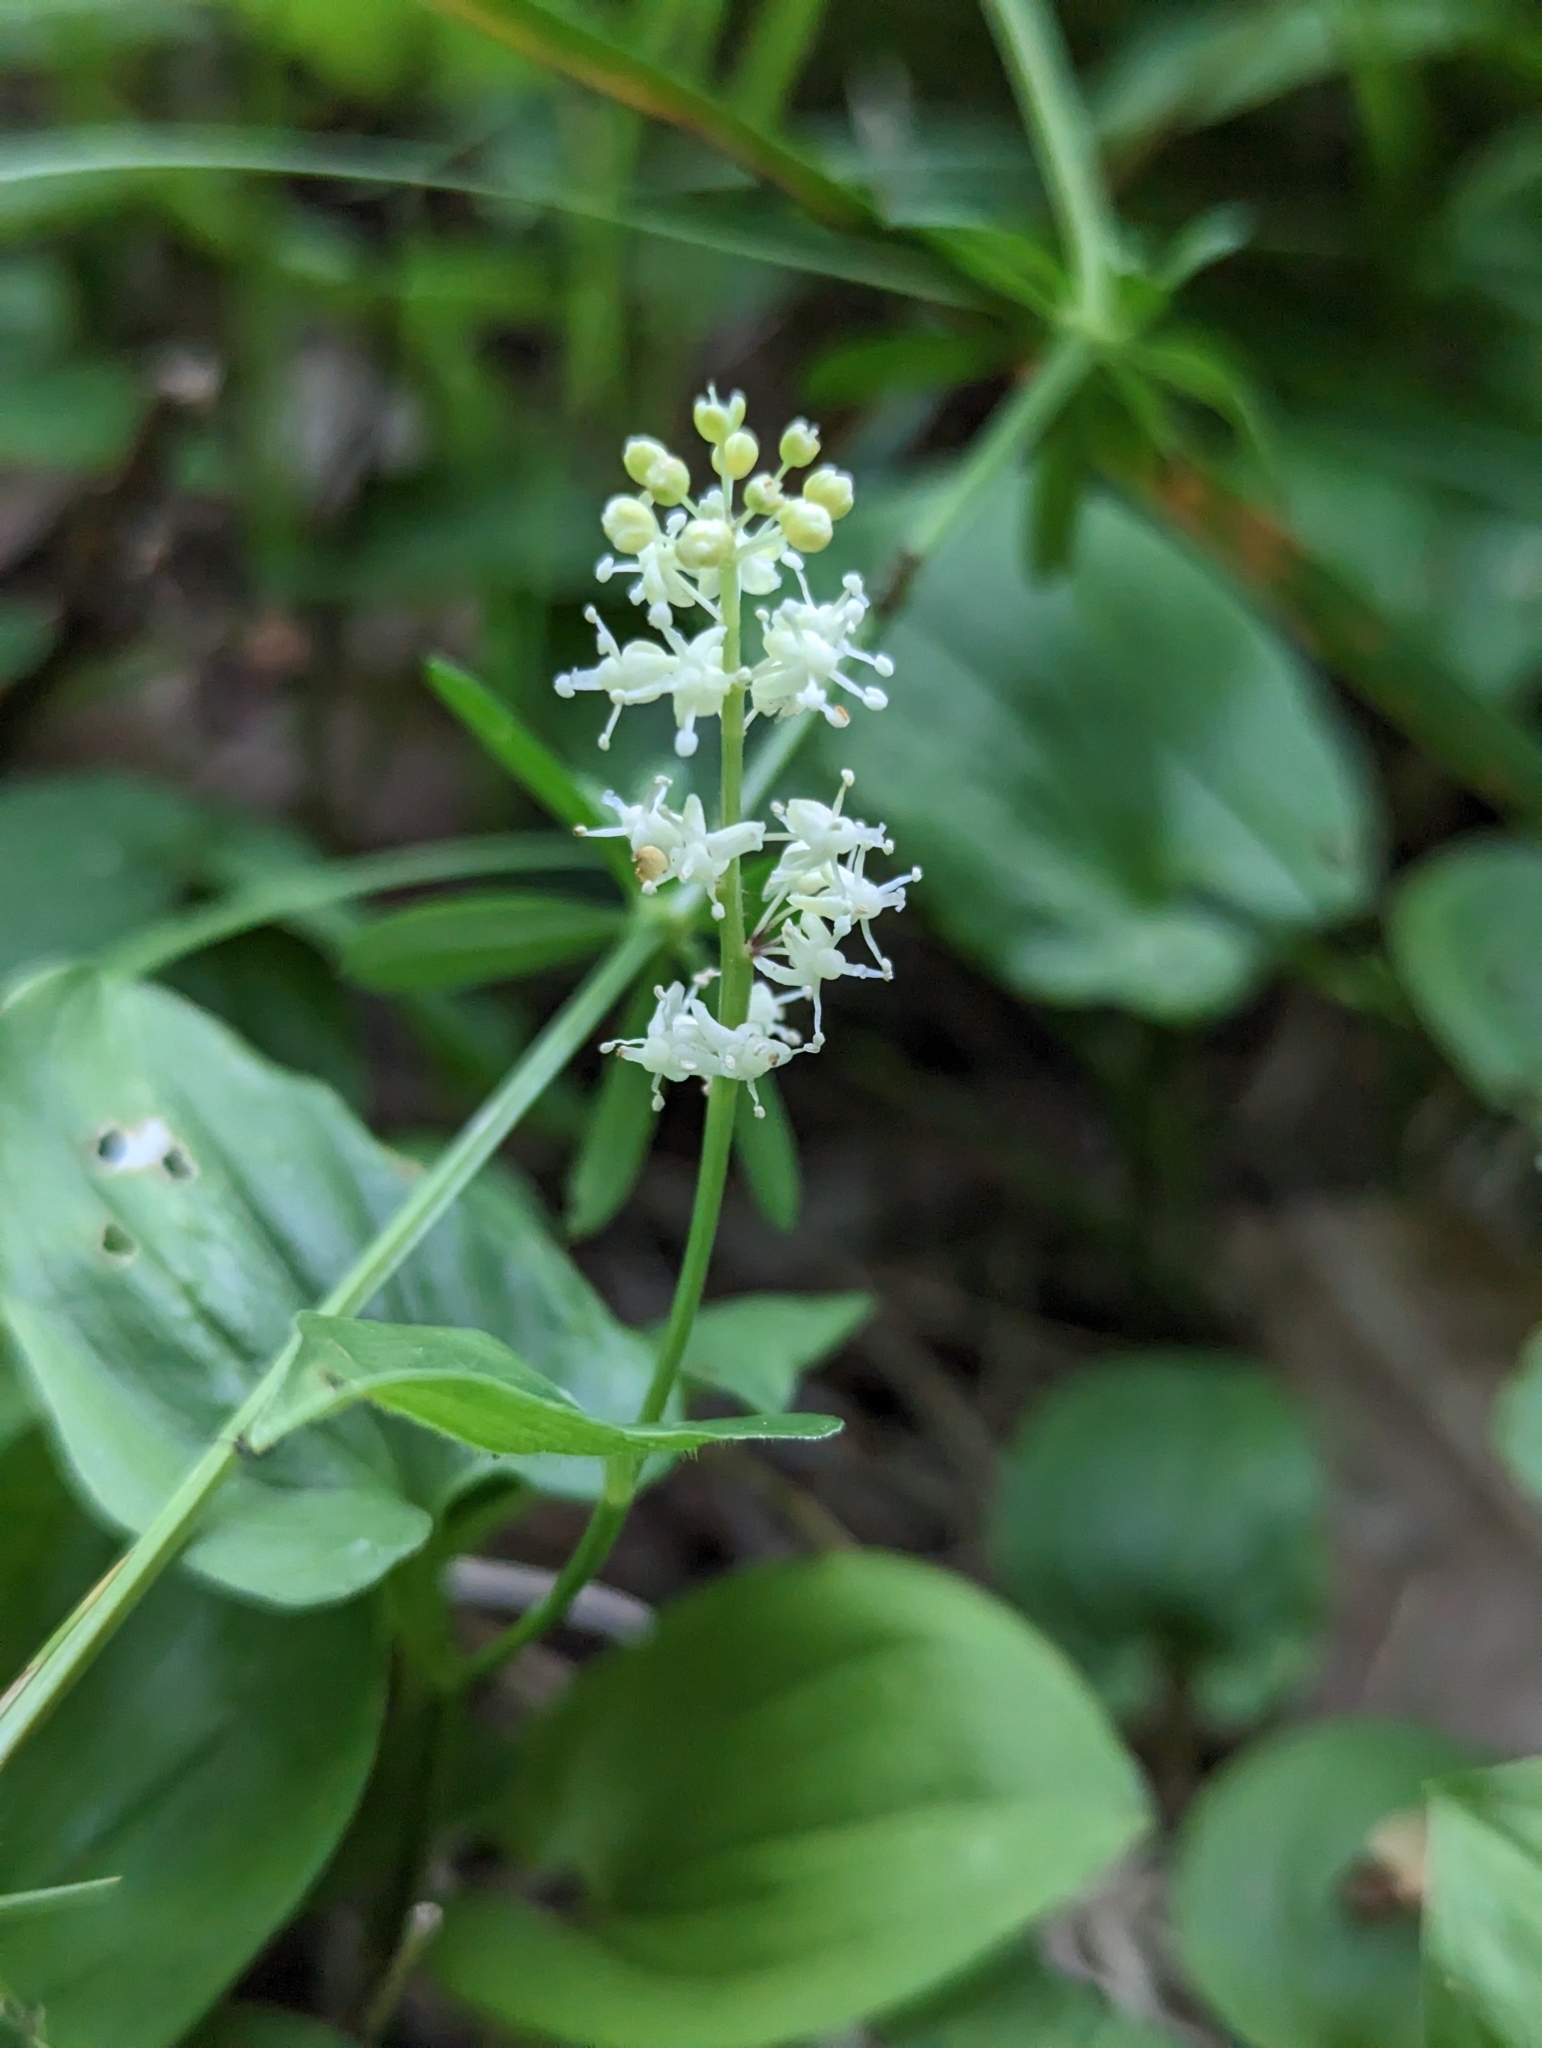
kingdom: Plantae
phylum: Tracheophyta
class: Liliopsida
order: Asparagales
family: Asparagaceae
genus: Maianthemum
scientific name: Maianthemum bifolium
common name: May lily
